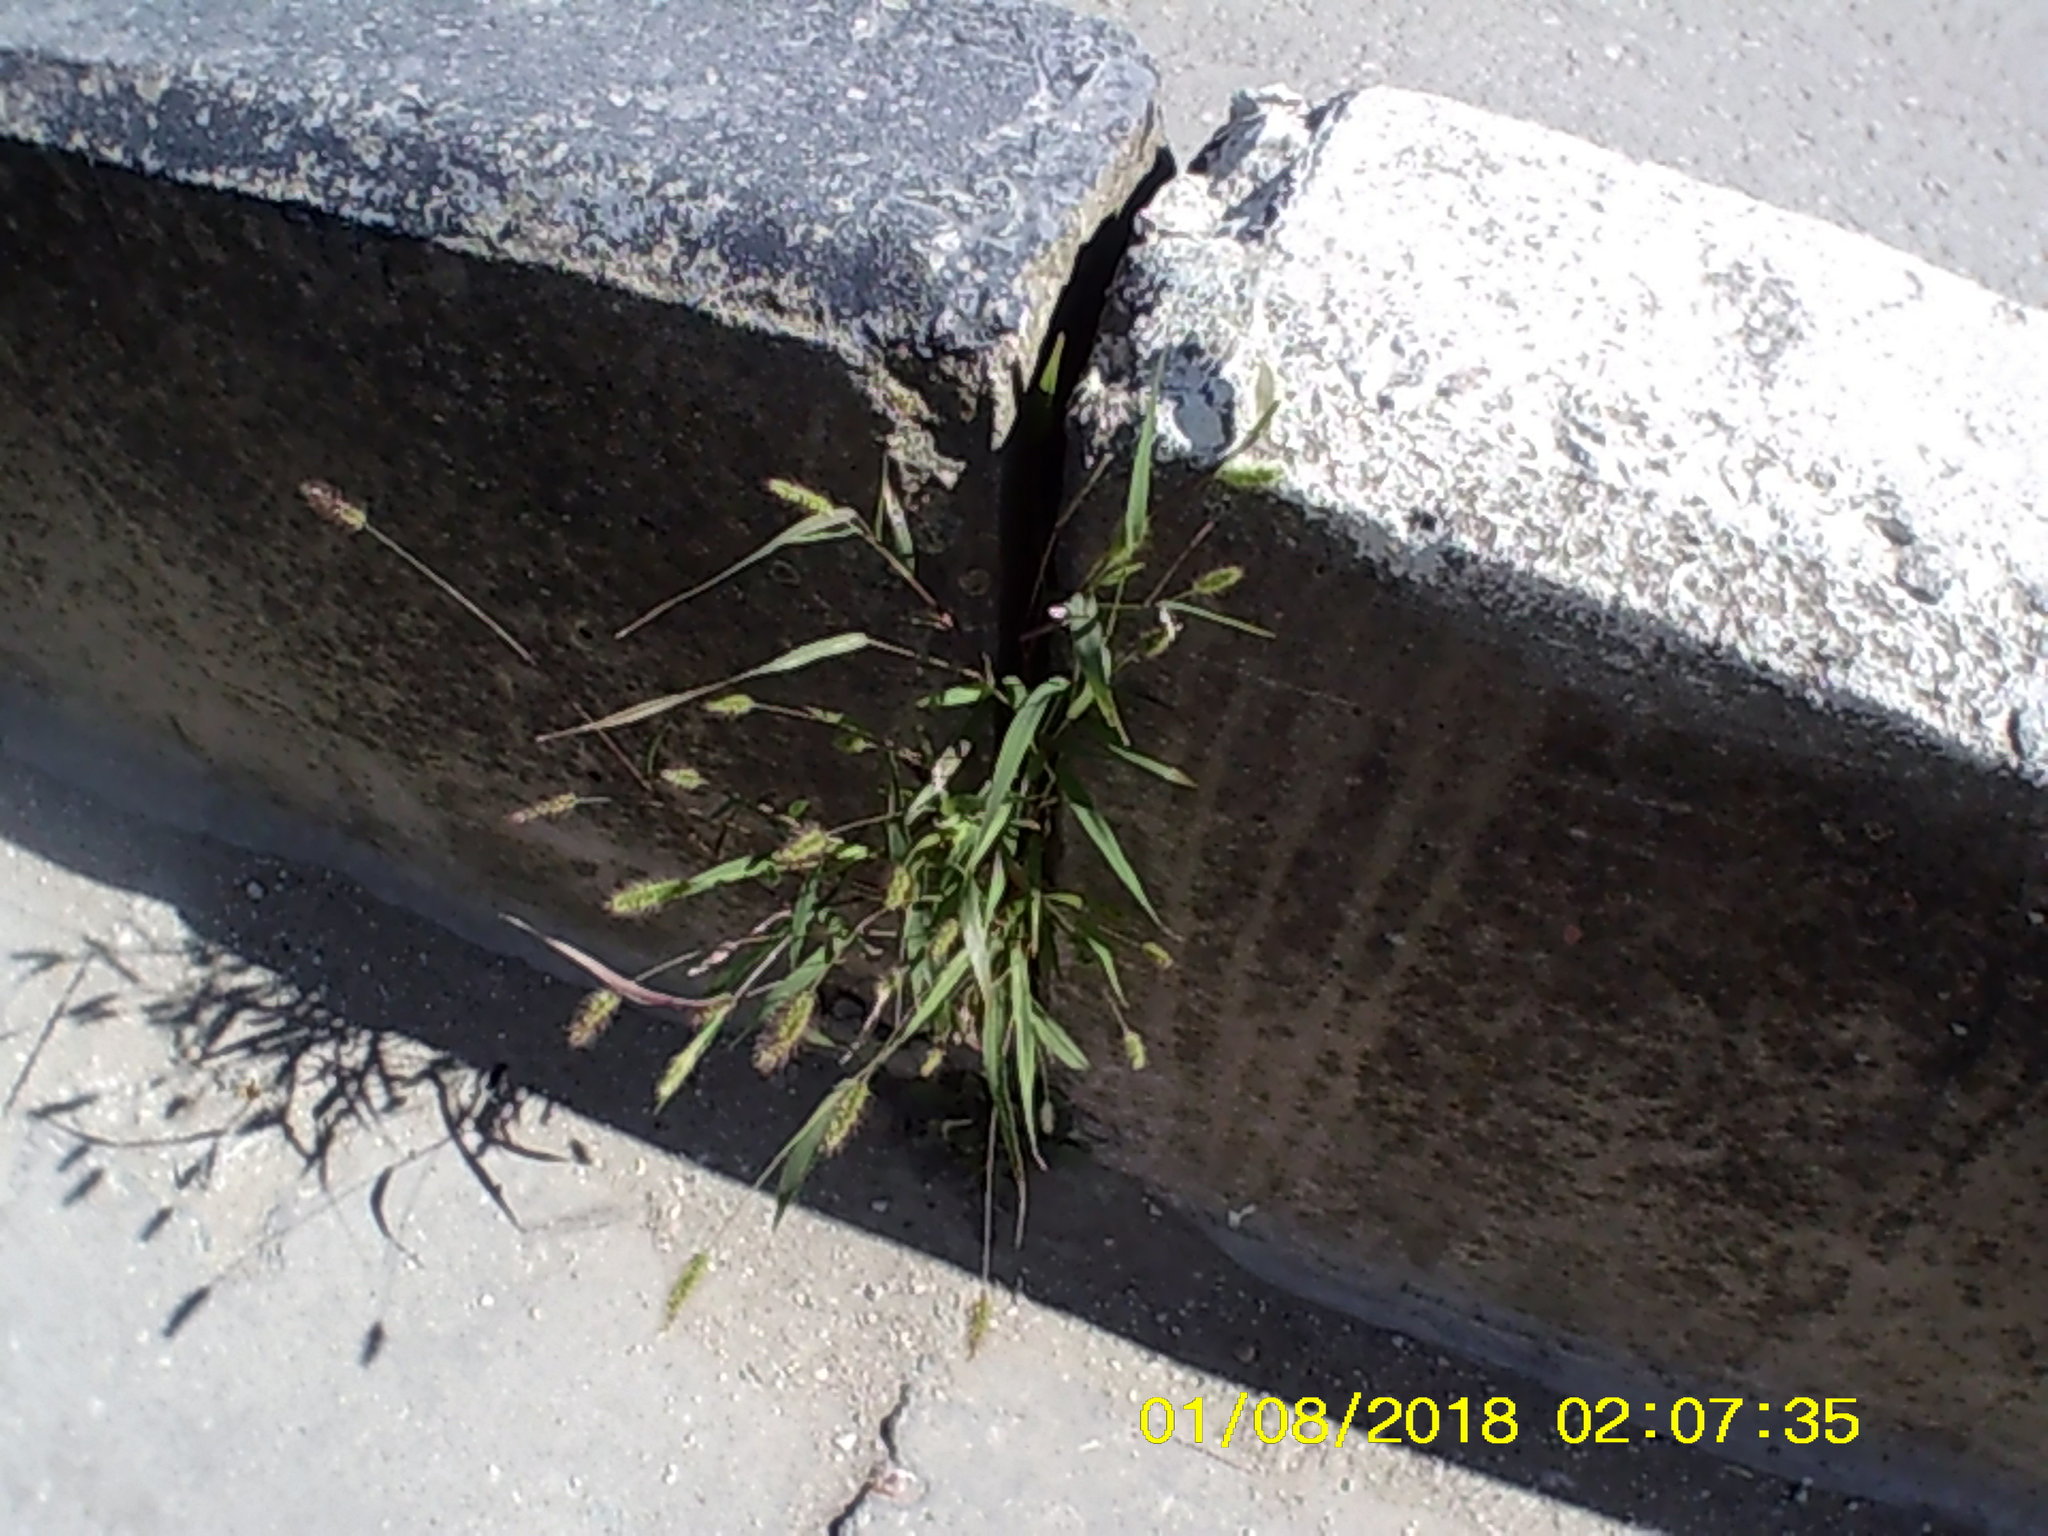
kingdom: Plantae
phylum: Tracheophyta
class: Liliopsida
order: Poales
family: Poaceae
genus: Setaria
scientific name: Setaria viridis
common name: Green bristlegrass
